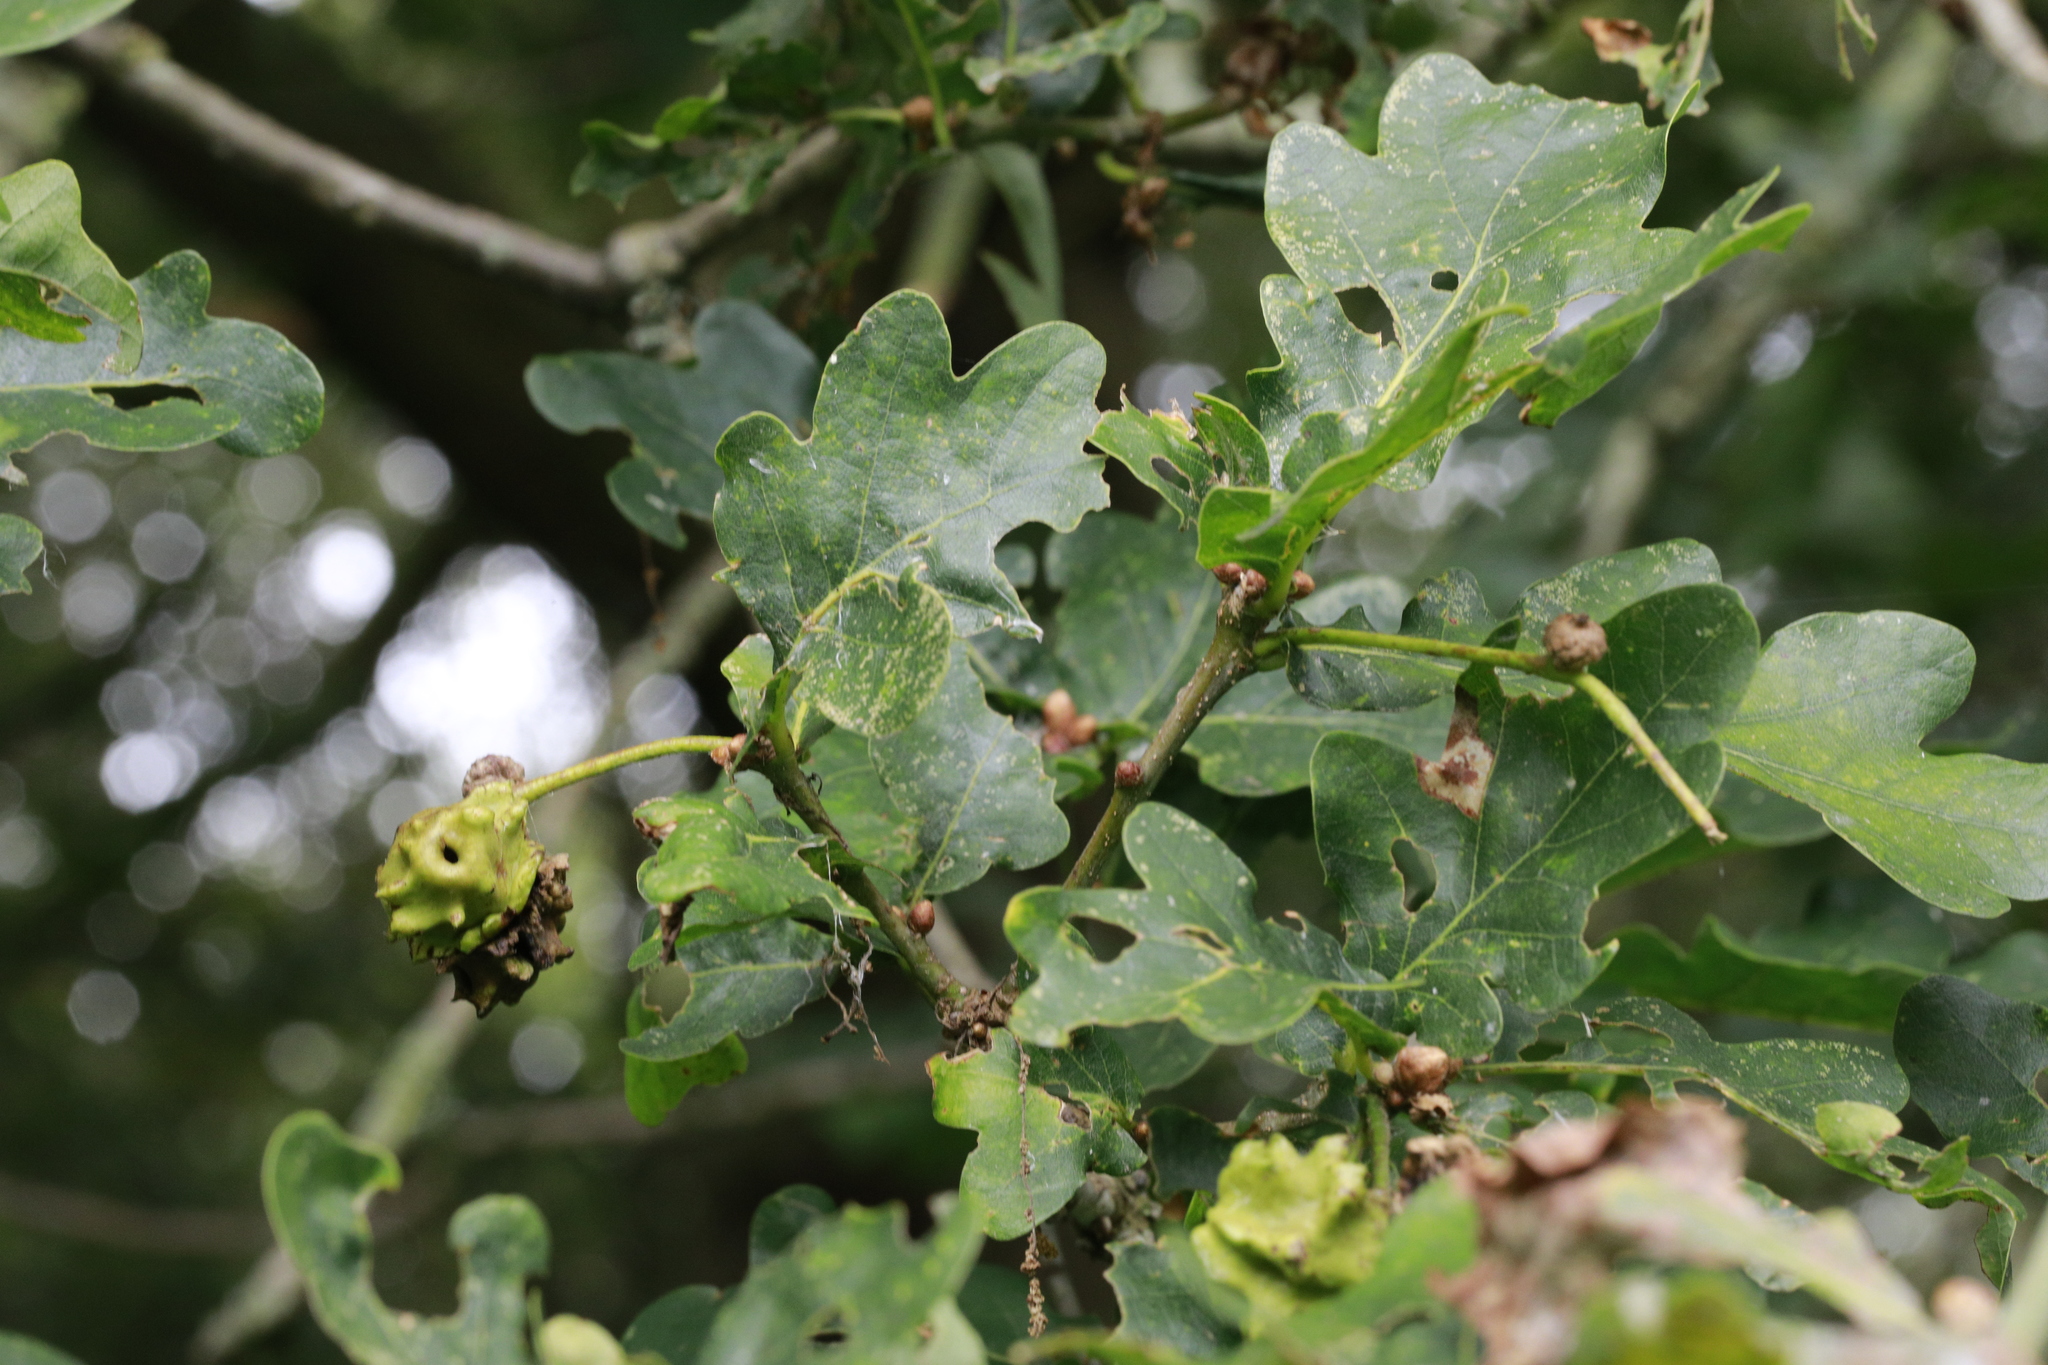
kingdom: Animalia
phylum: Arthropoda
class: Insecta
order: Hymenoptera
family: Cynipidae
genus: Andricus
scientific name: Andricus quercuscalicis
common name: Knopper gall
